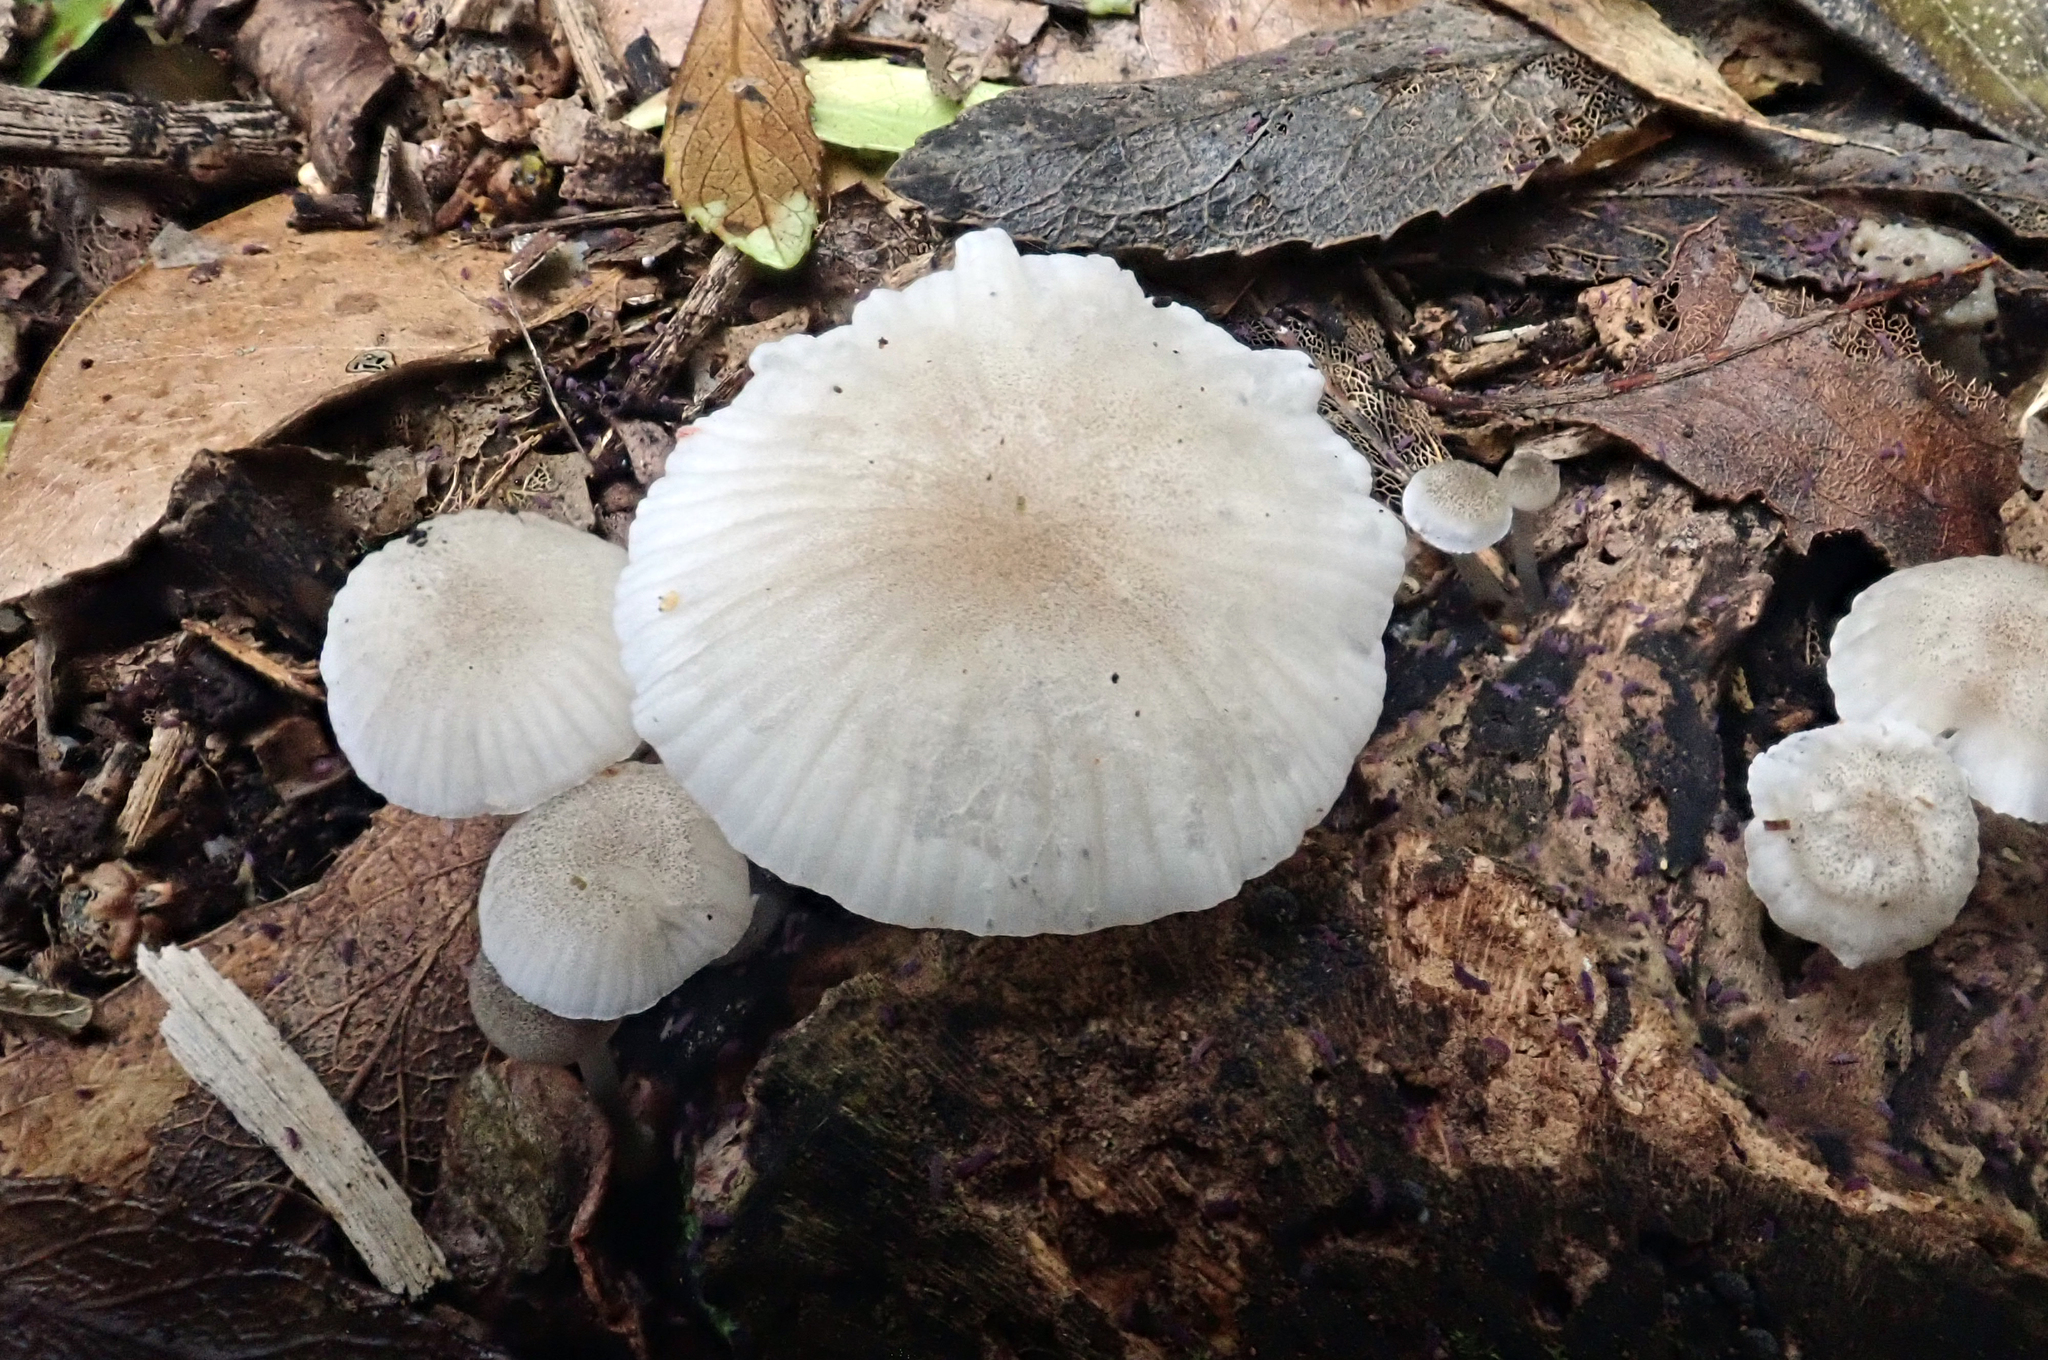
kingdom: Fungi
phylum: Basidiomycota
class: Agaricomycetes
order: Agaricales
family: Mycenaceae
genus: Roridomyces
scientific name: Roridomyces austrororidus
